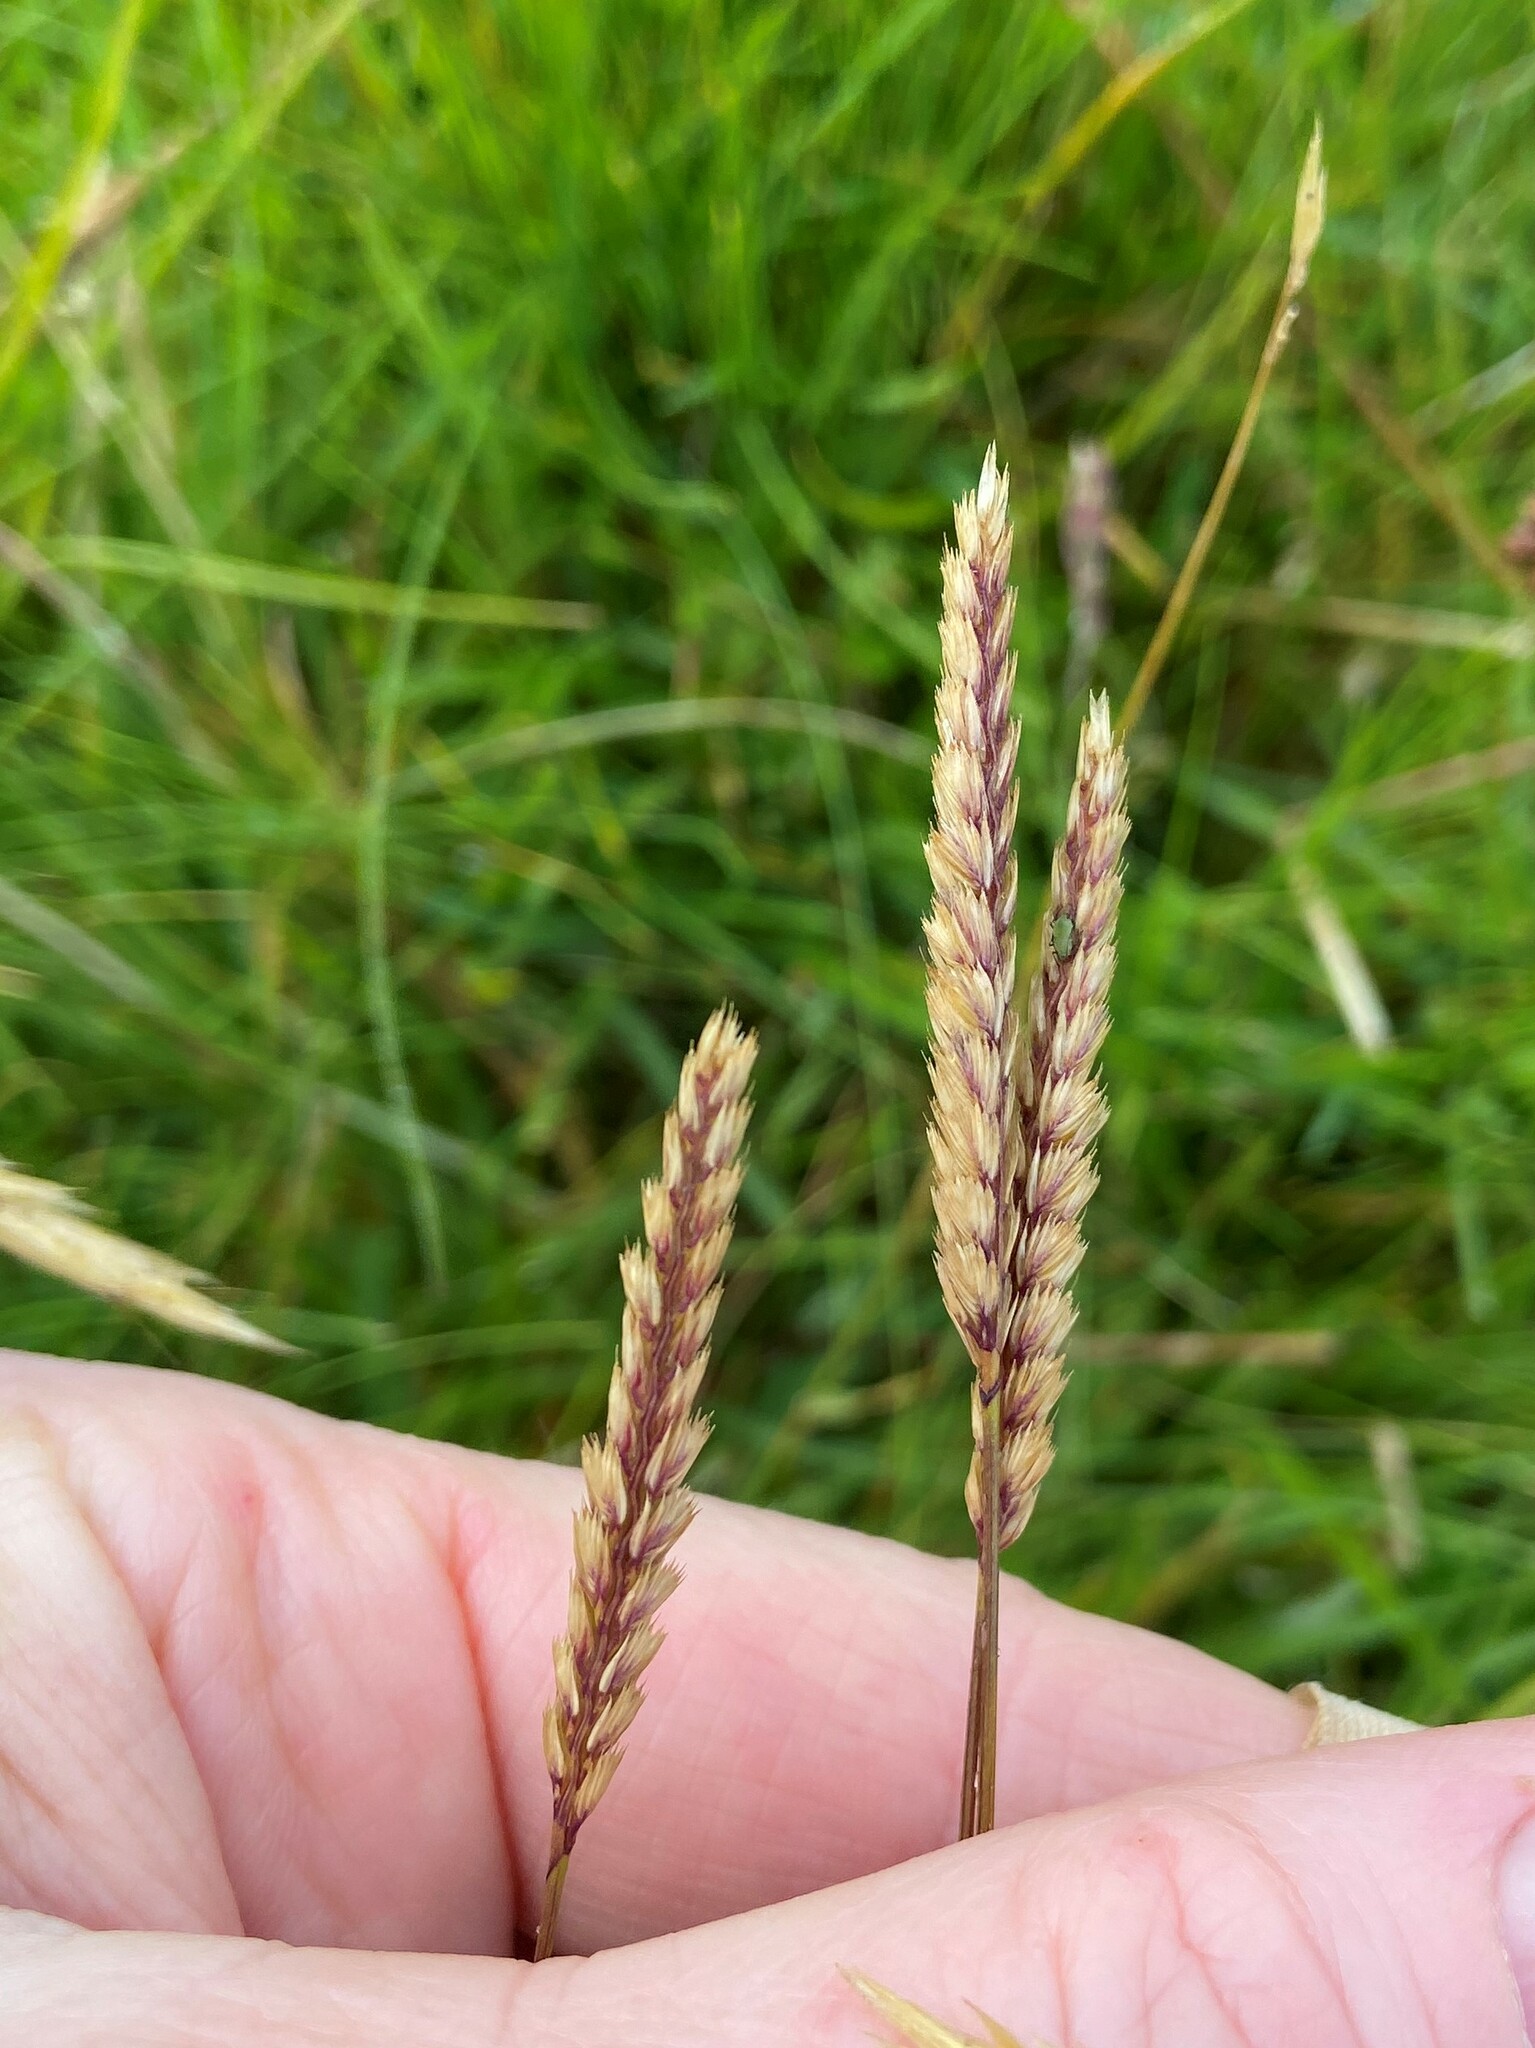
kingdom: Plantae
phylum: Tracheophyta
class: Liliopsida
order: Poales
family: Poaceae
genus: Cynosurus
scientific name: Cynosurus cristatus
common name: Crested dog's-tail
